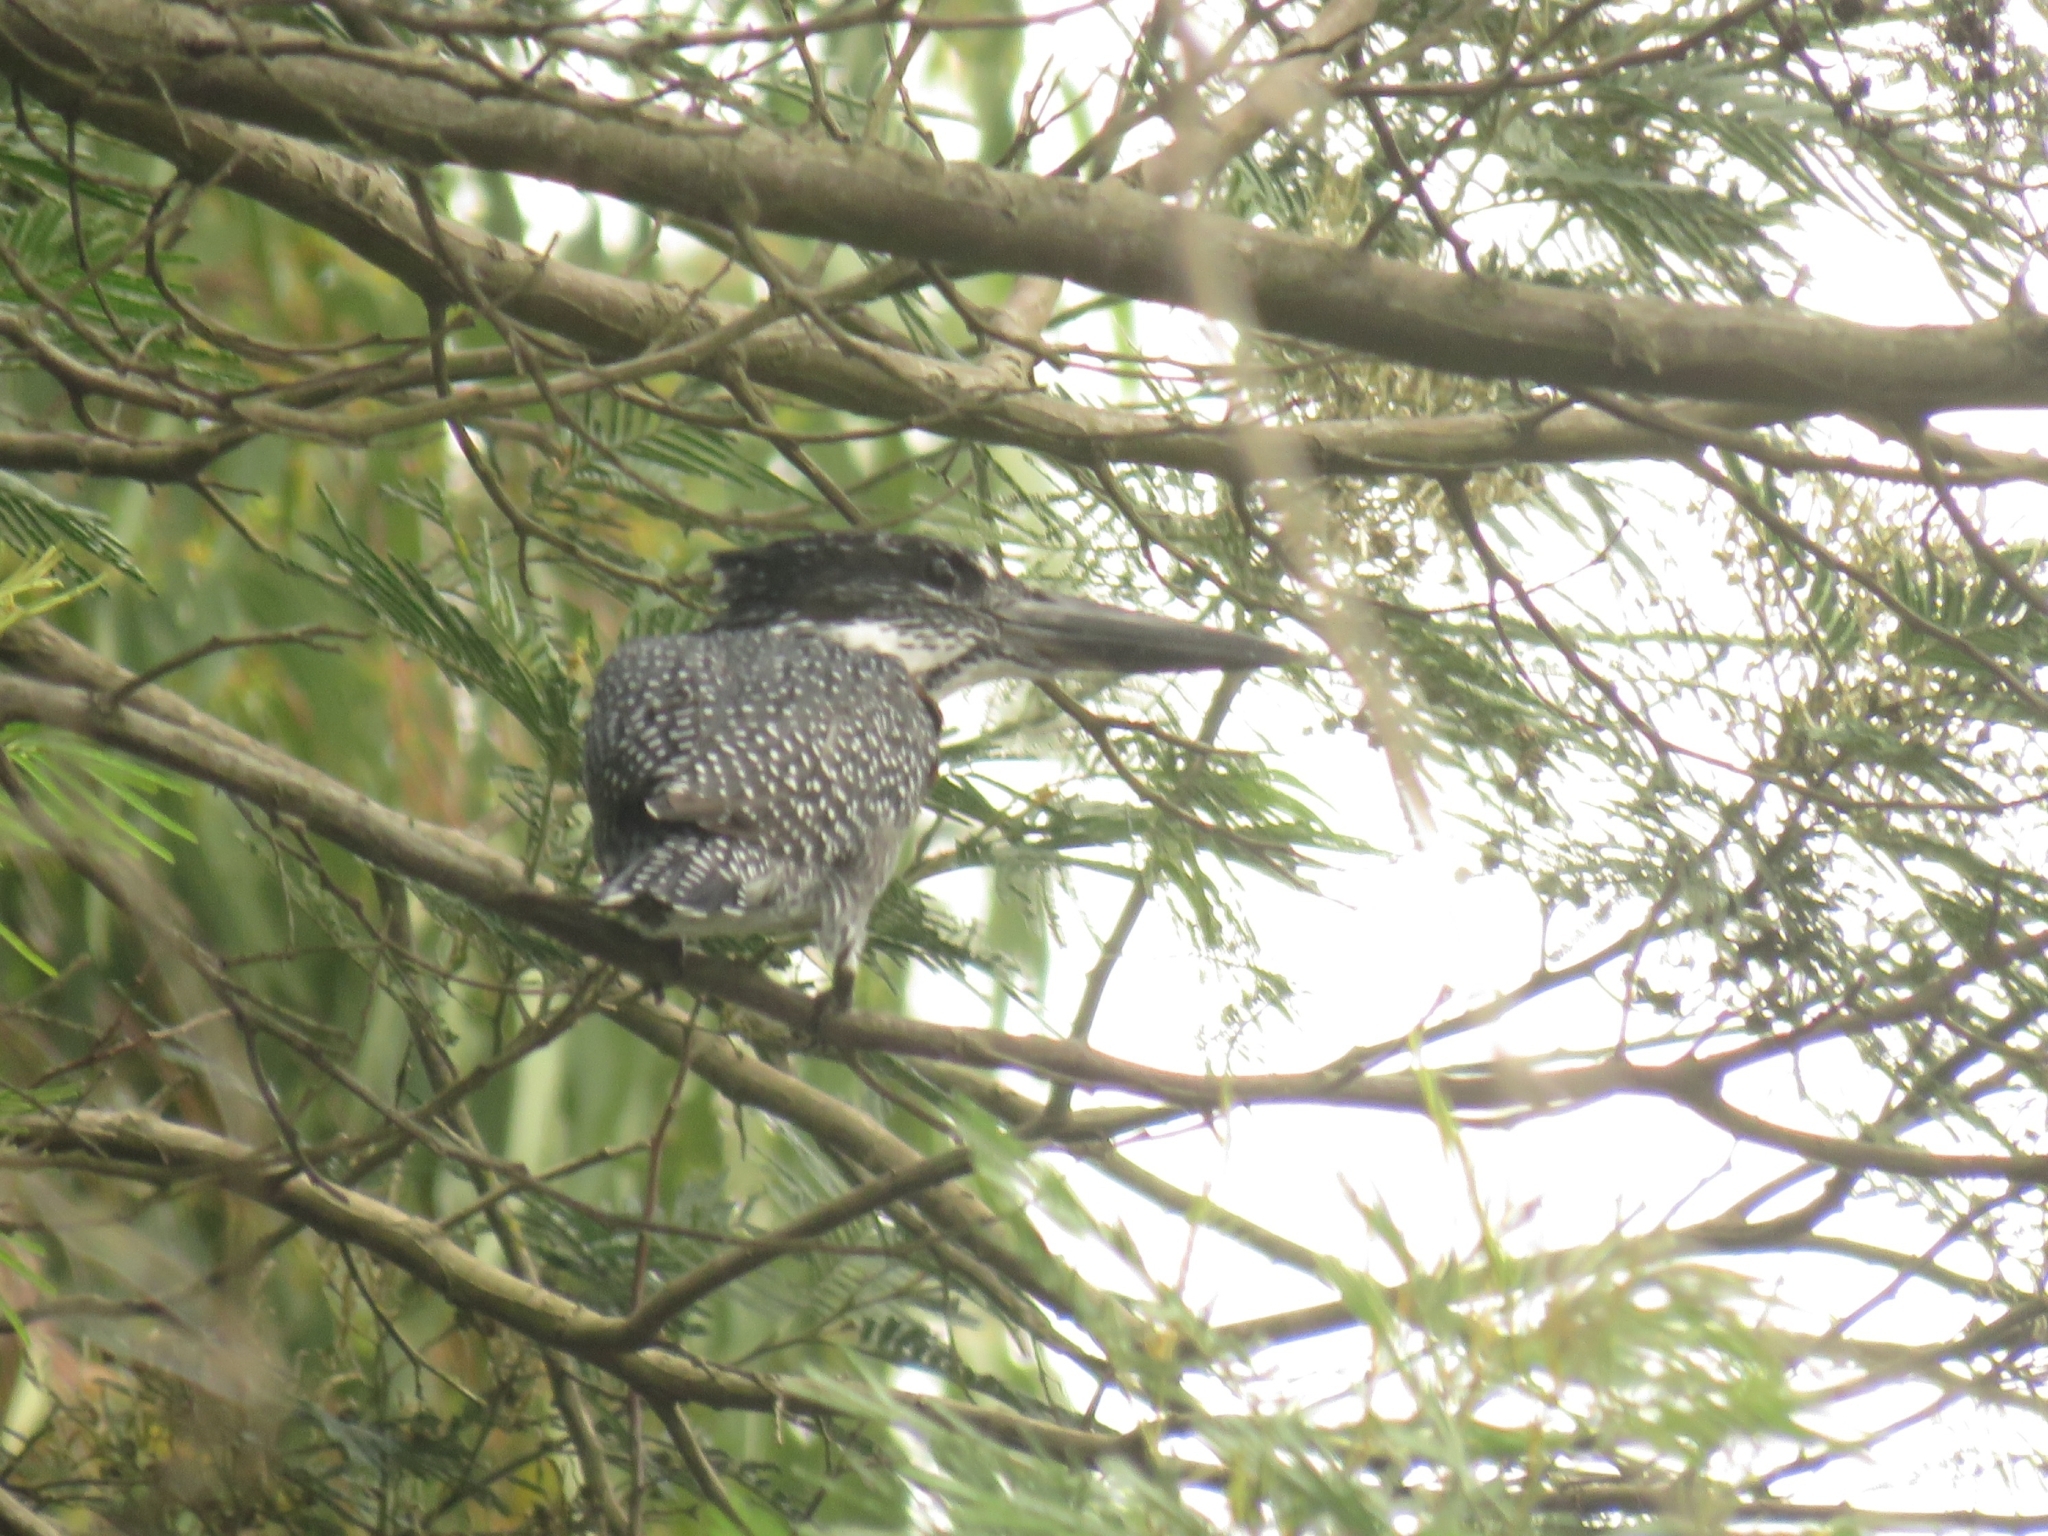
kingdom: Animalia
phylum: Chordata
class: Aves
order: Coraciiformes
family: Alcedinidae
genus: Megaceryle
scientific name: Megaceryle maxima
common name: Giant kingfisher
